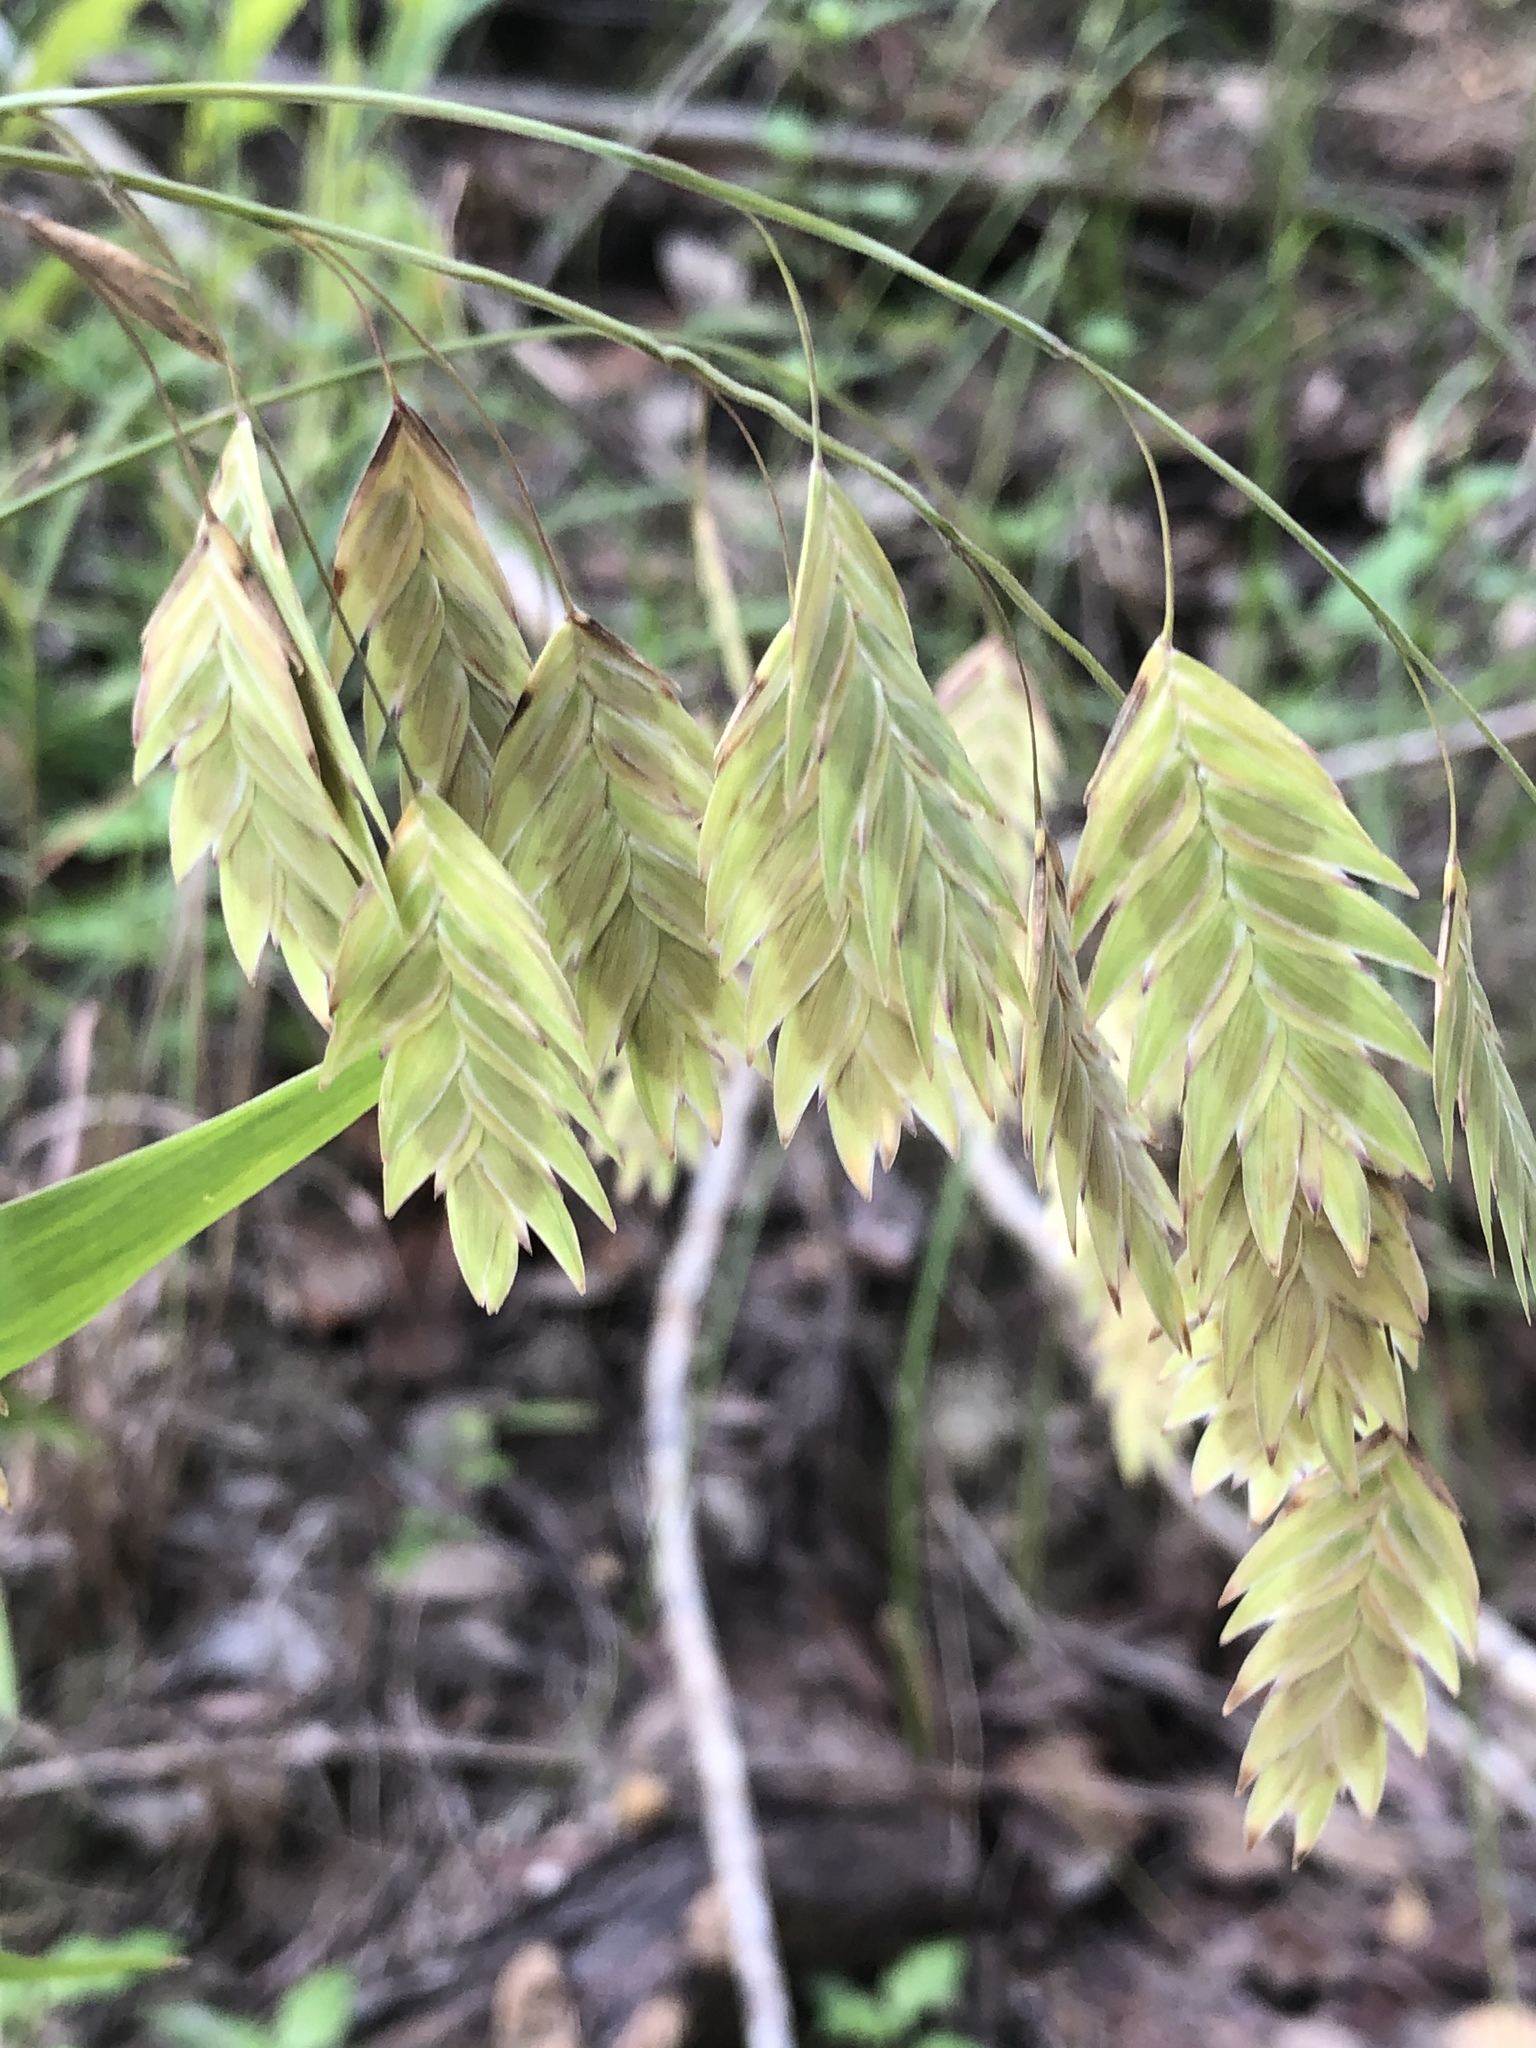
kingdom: Plantae
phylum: Tracheophyta
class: Liliopsida
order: Poales
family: Poaceae
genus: Chasmanthium
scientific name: Chasmanthium latifolium
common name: Broad-leaved chasmanthium
